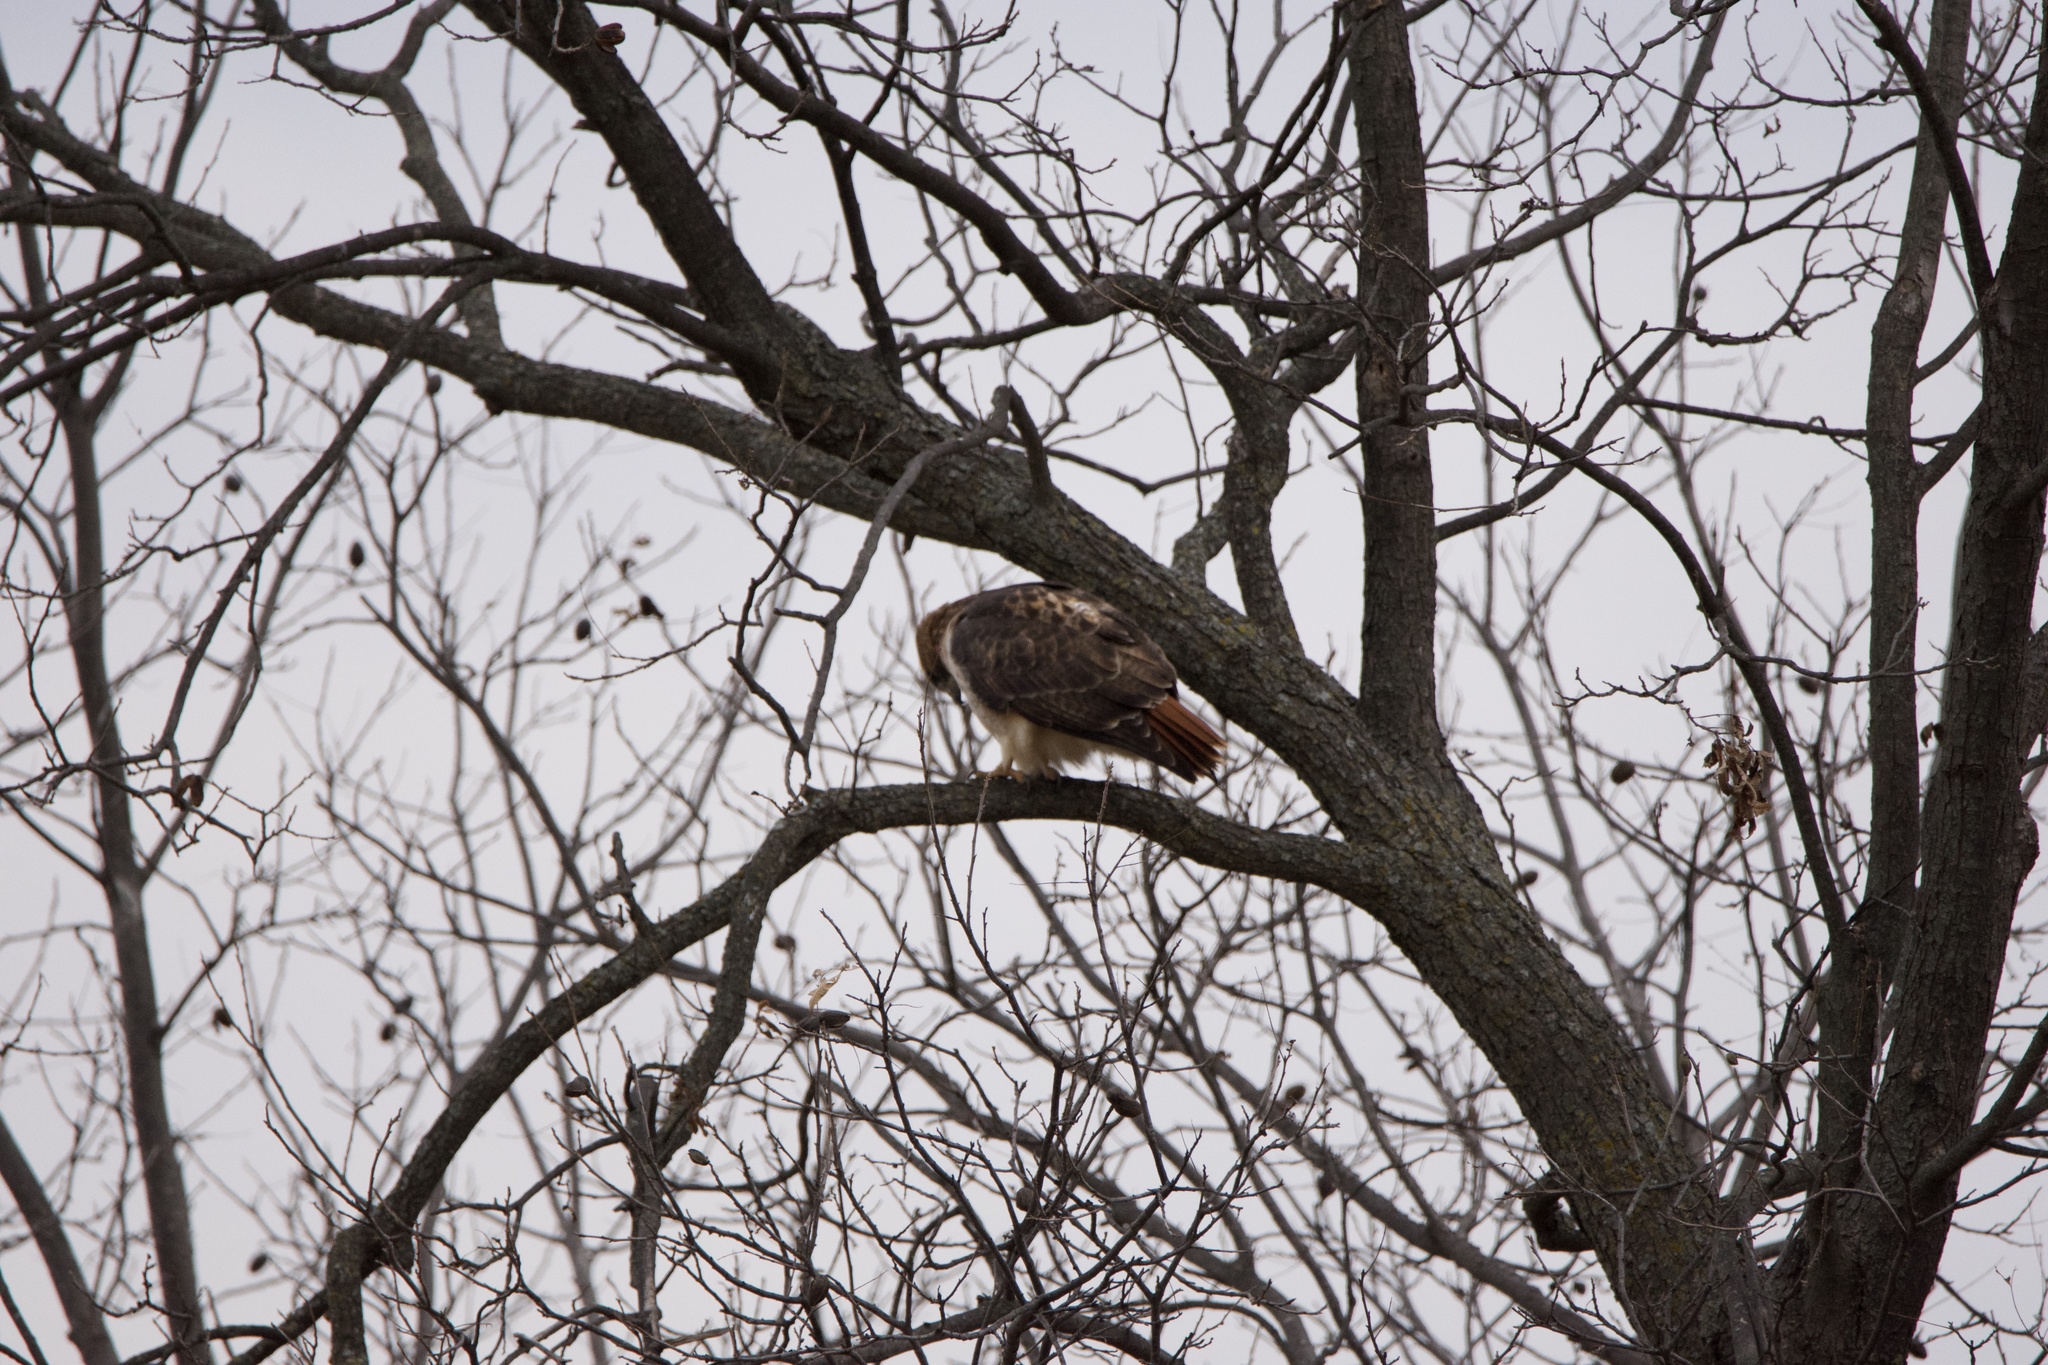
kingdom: Animalia
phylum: Chordata
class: Aves
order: Accipitriformes
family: Accipitridae
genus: Buteo
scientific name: Buteo jamaicensis
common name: Red-tailed hawk
